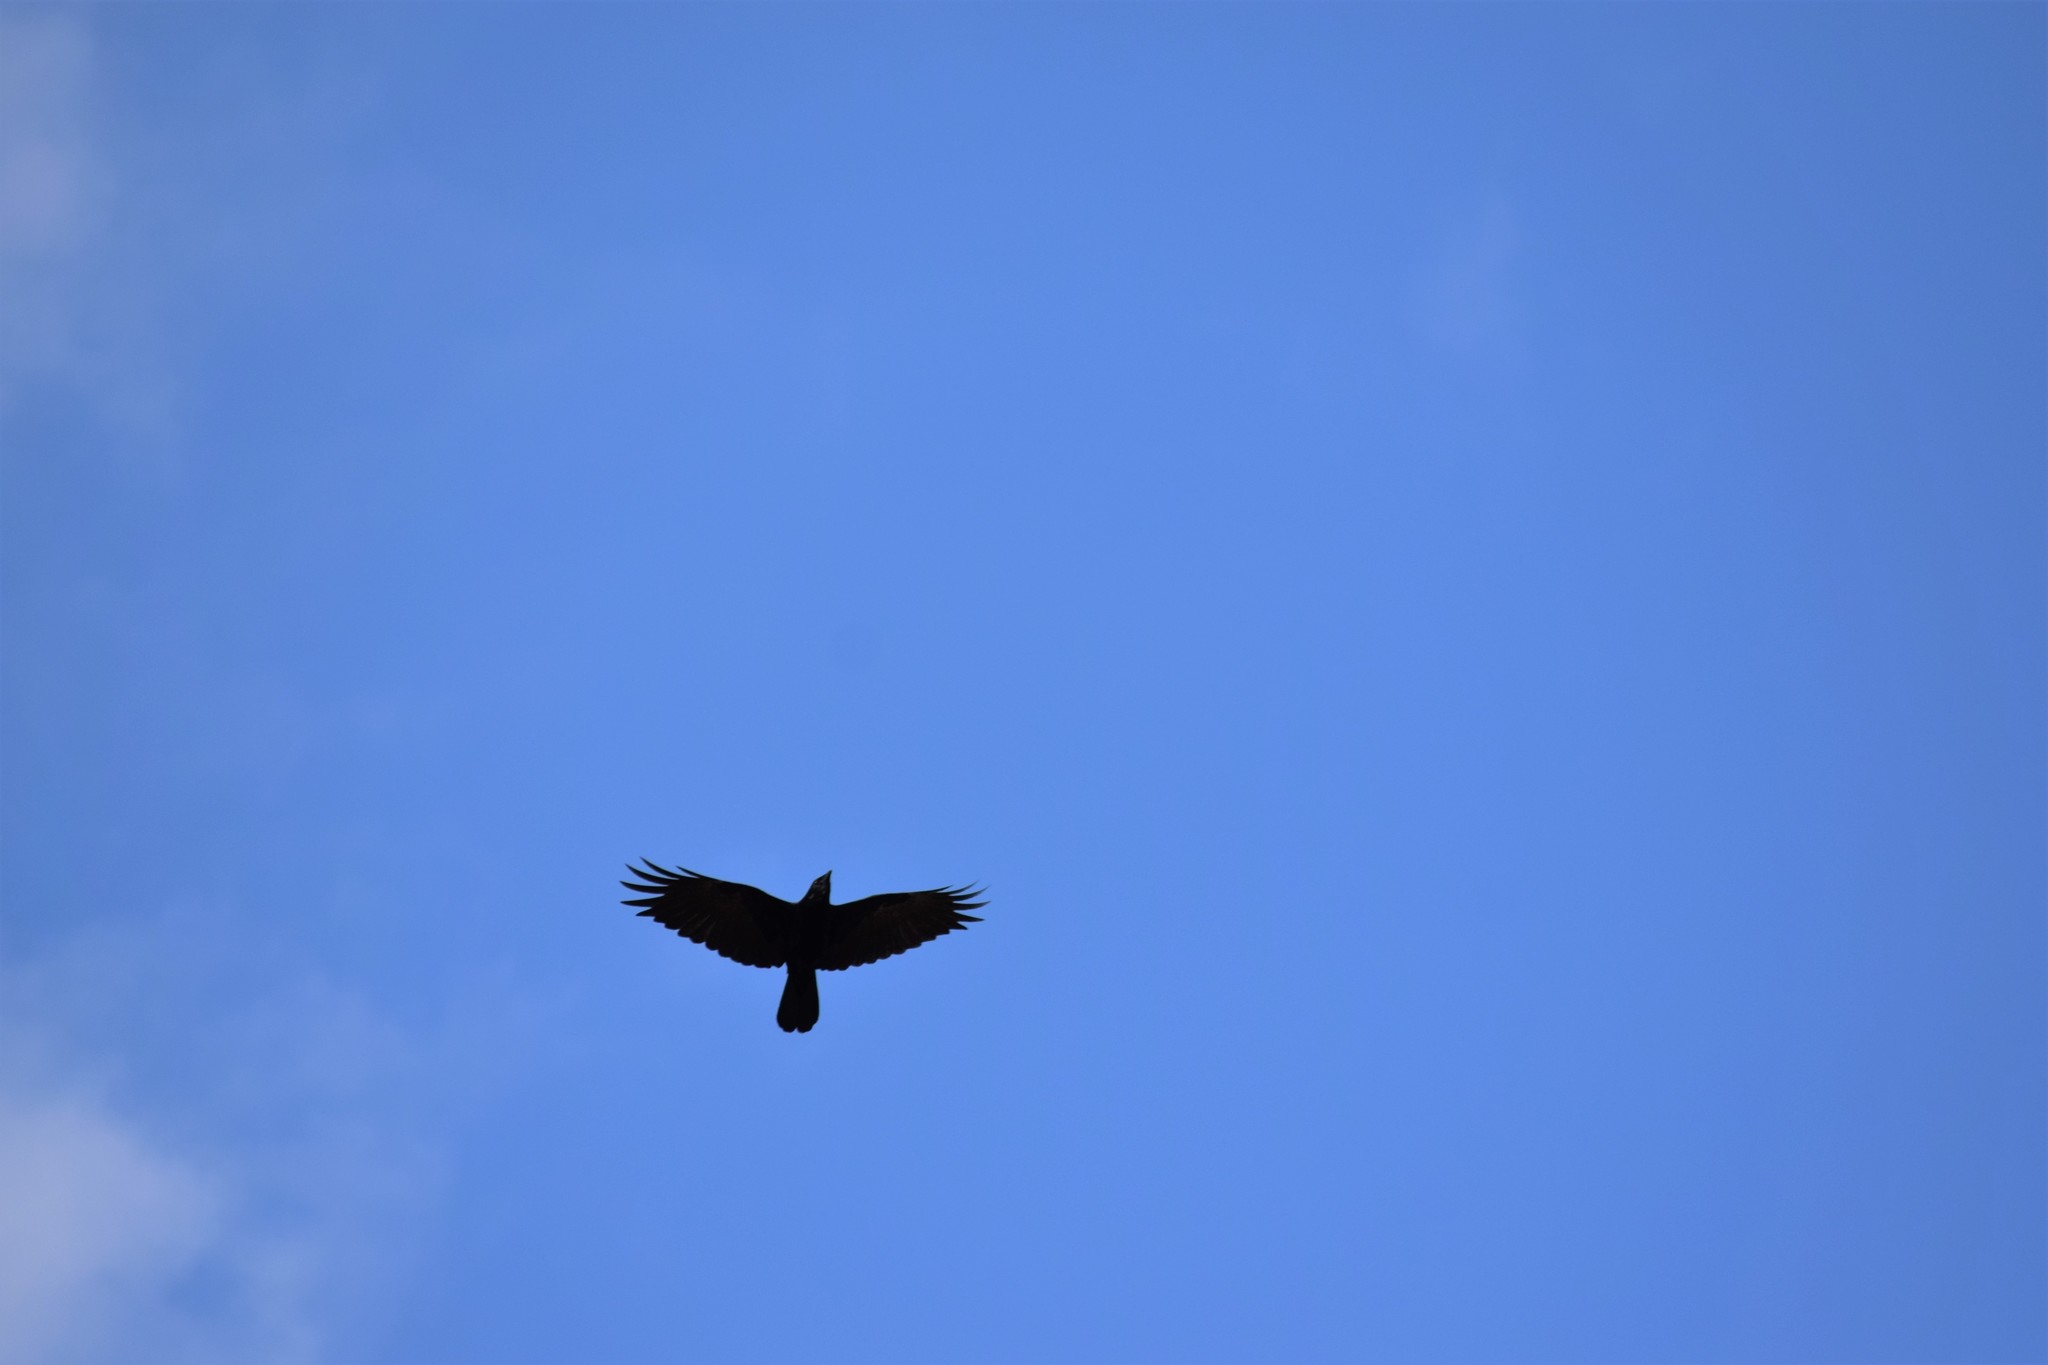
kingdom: Animalia
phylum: Chordata
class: Aves
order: Passeriformes
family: Corvidae
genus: Corvus
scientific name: Corvus ossifragus
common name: Fish crow
